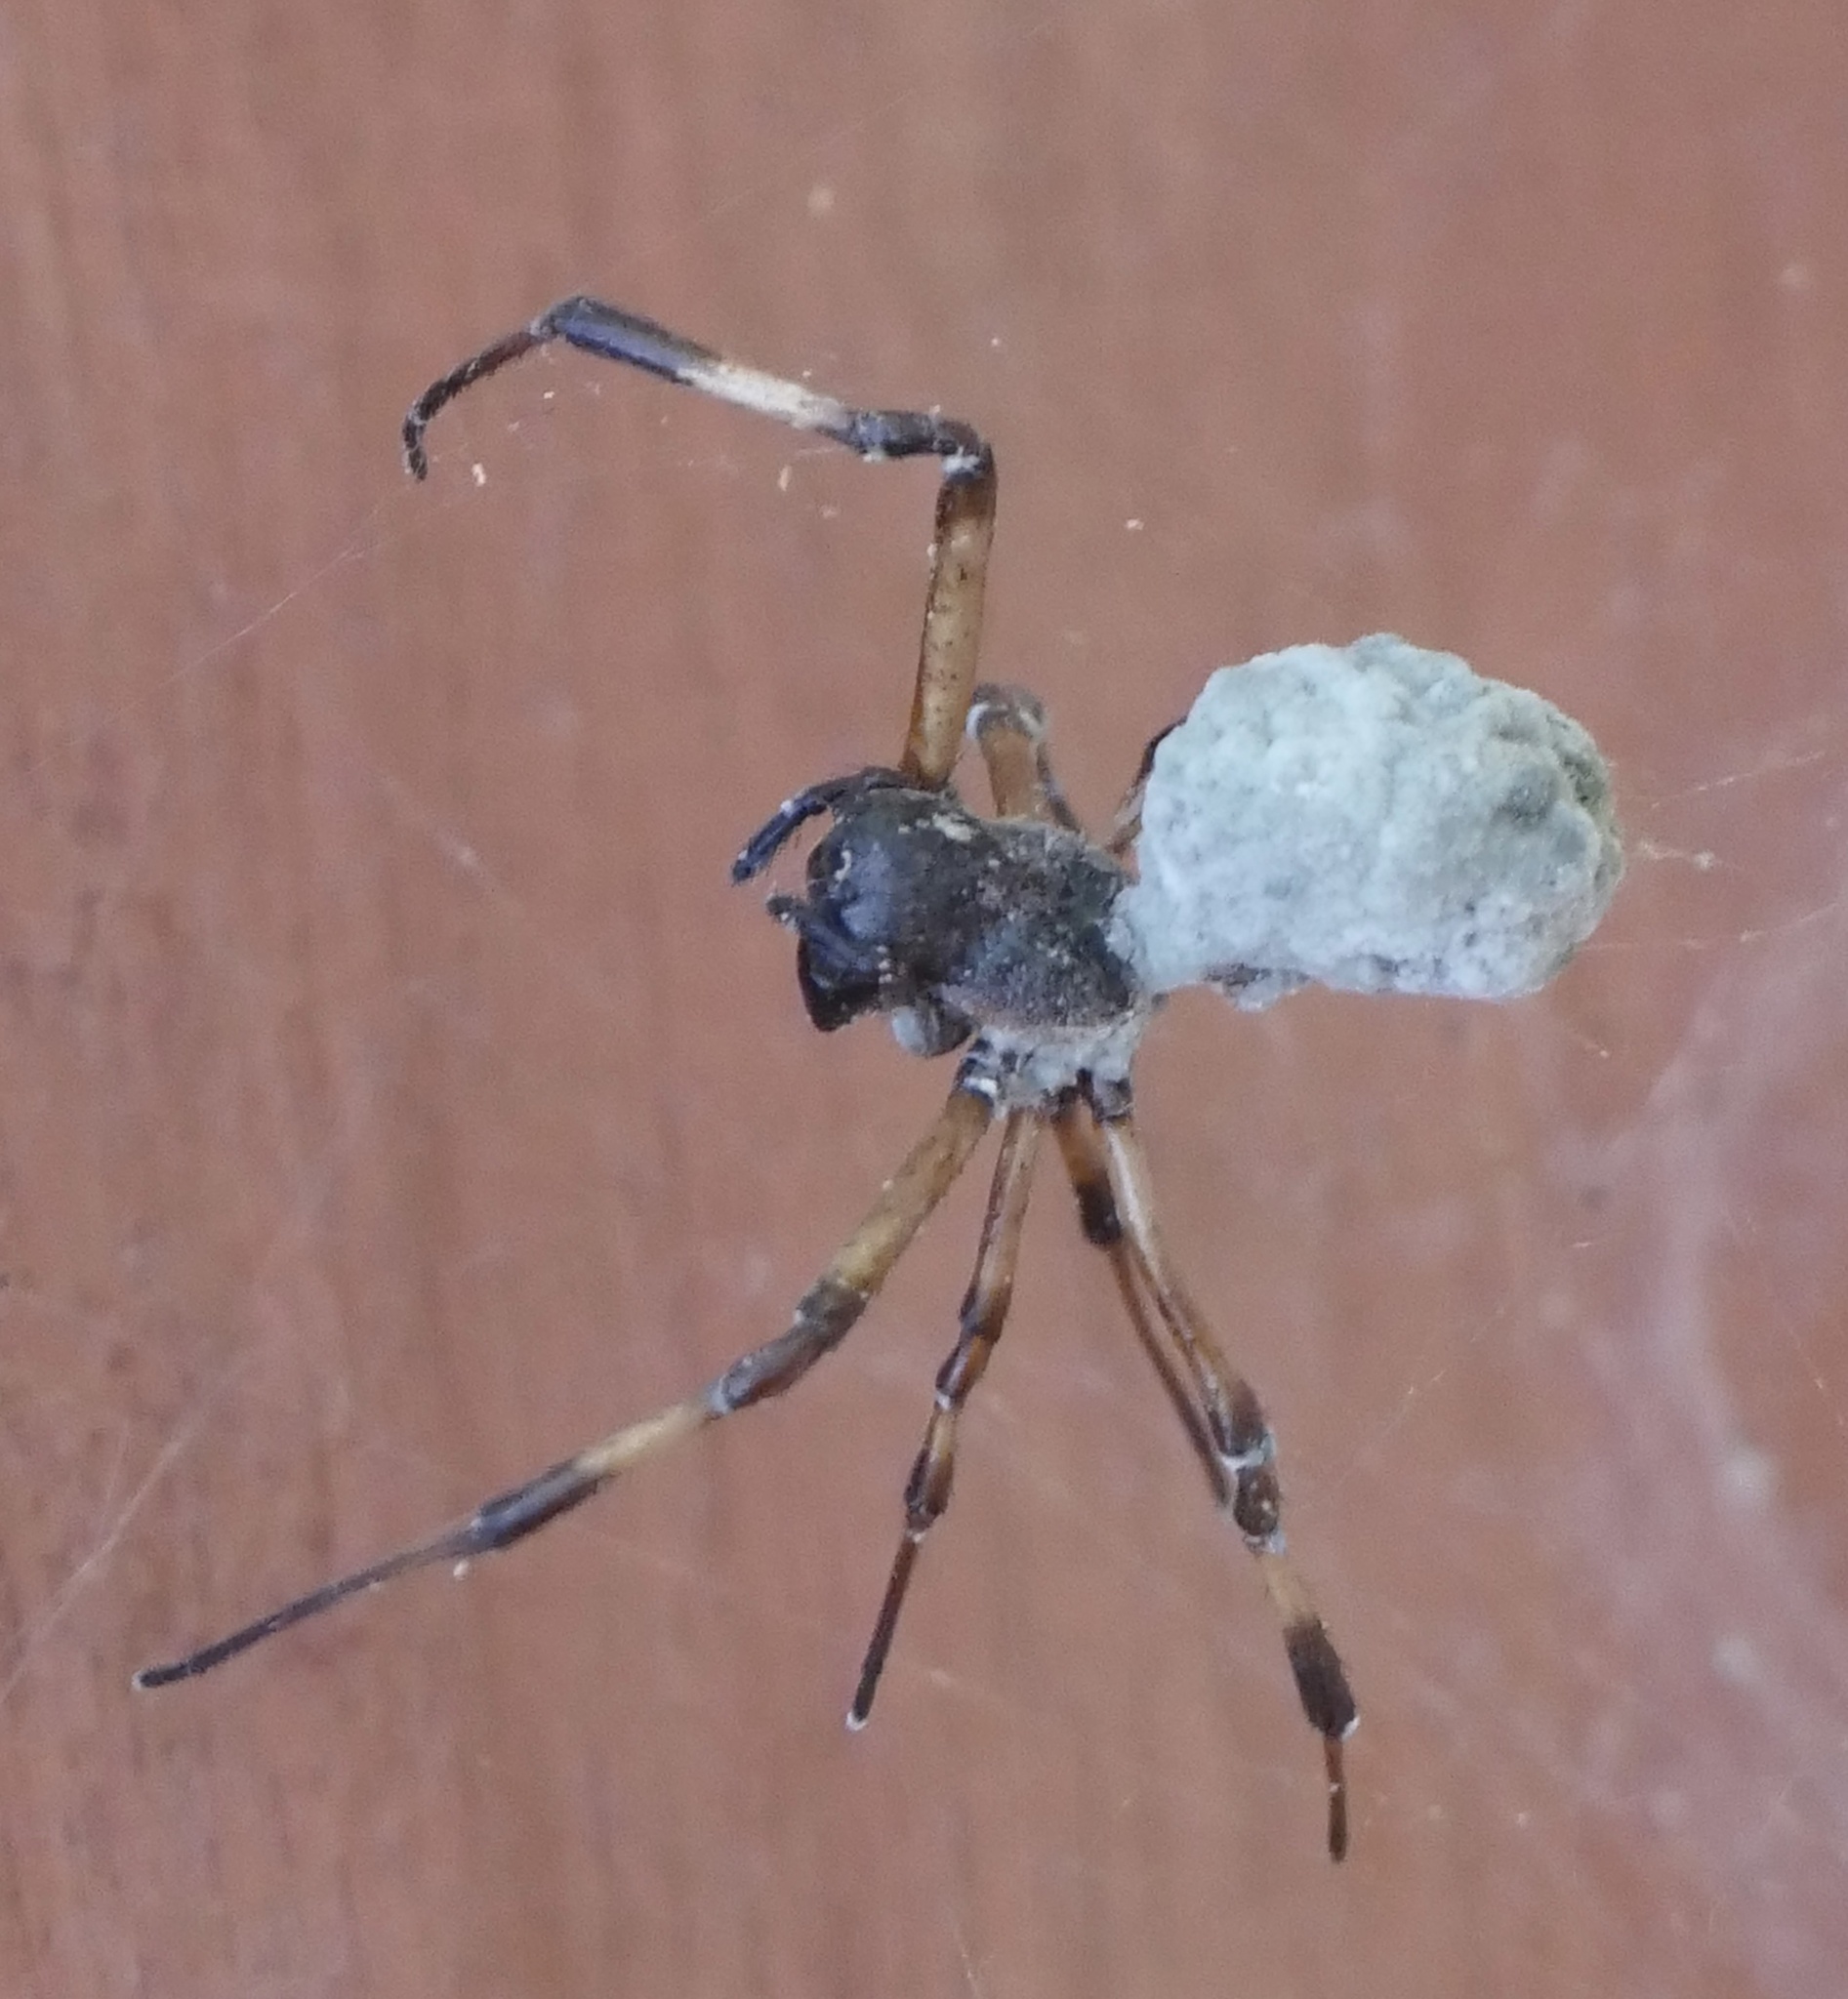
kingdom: Animalia
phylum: Arthropoda
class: Arachnida
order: Araneae
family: Araneidae
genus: Nephilengys
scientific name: Nephilengys malabarensis
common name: Asian hermit spider
